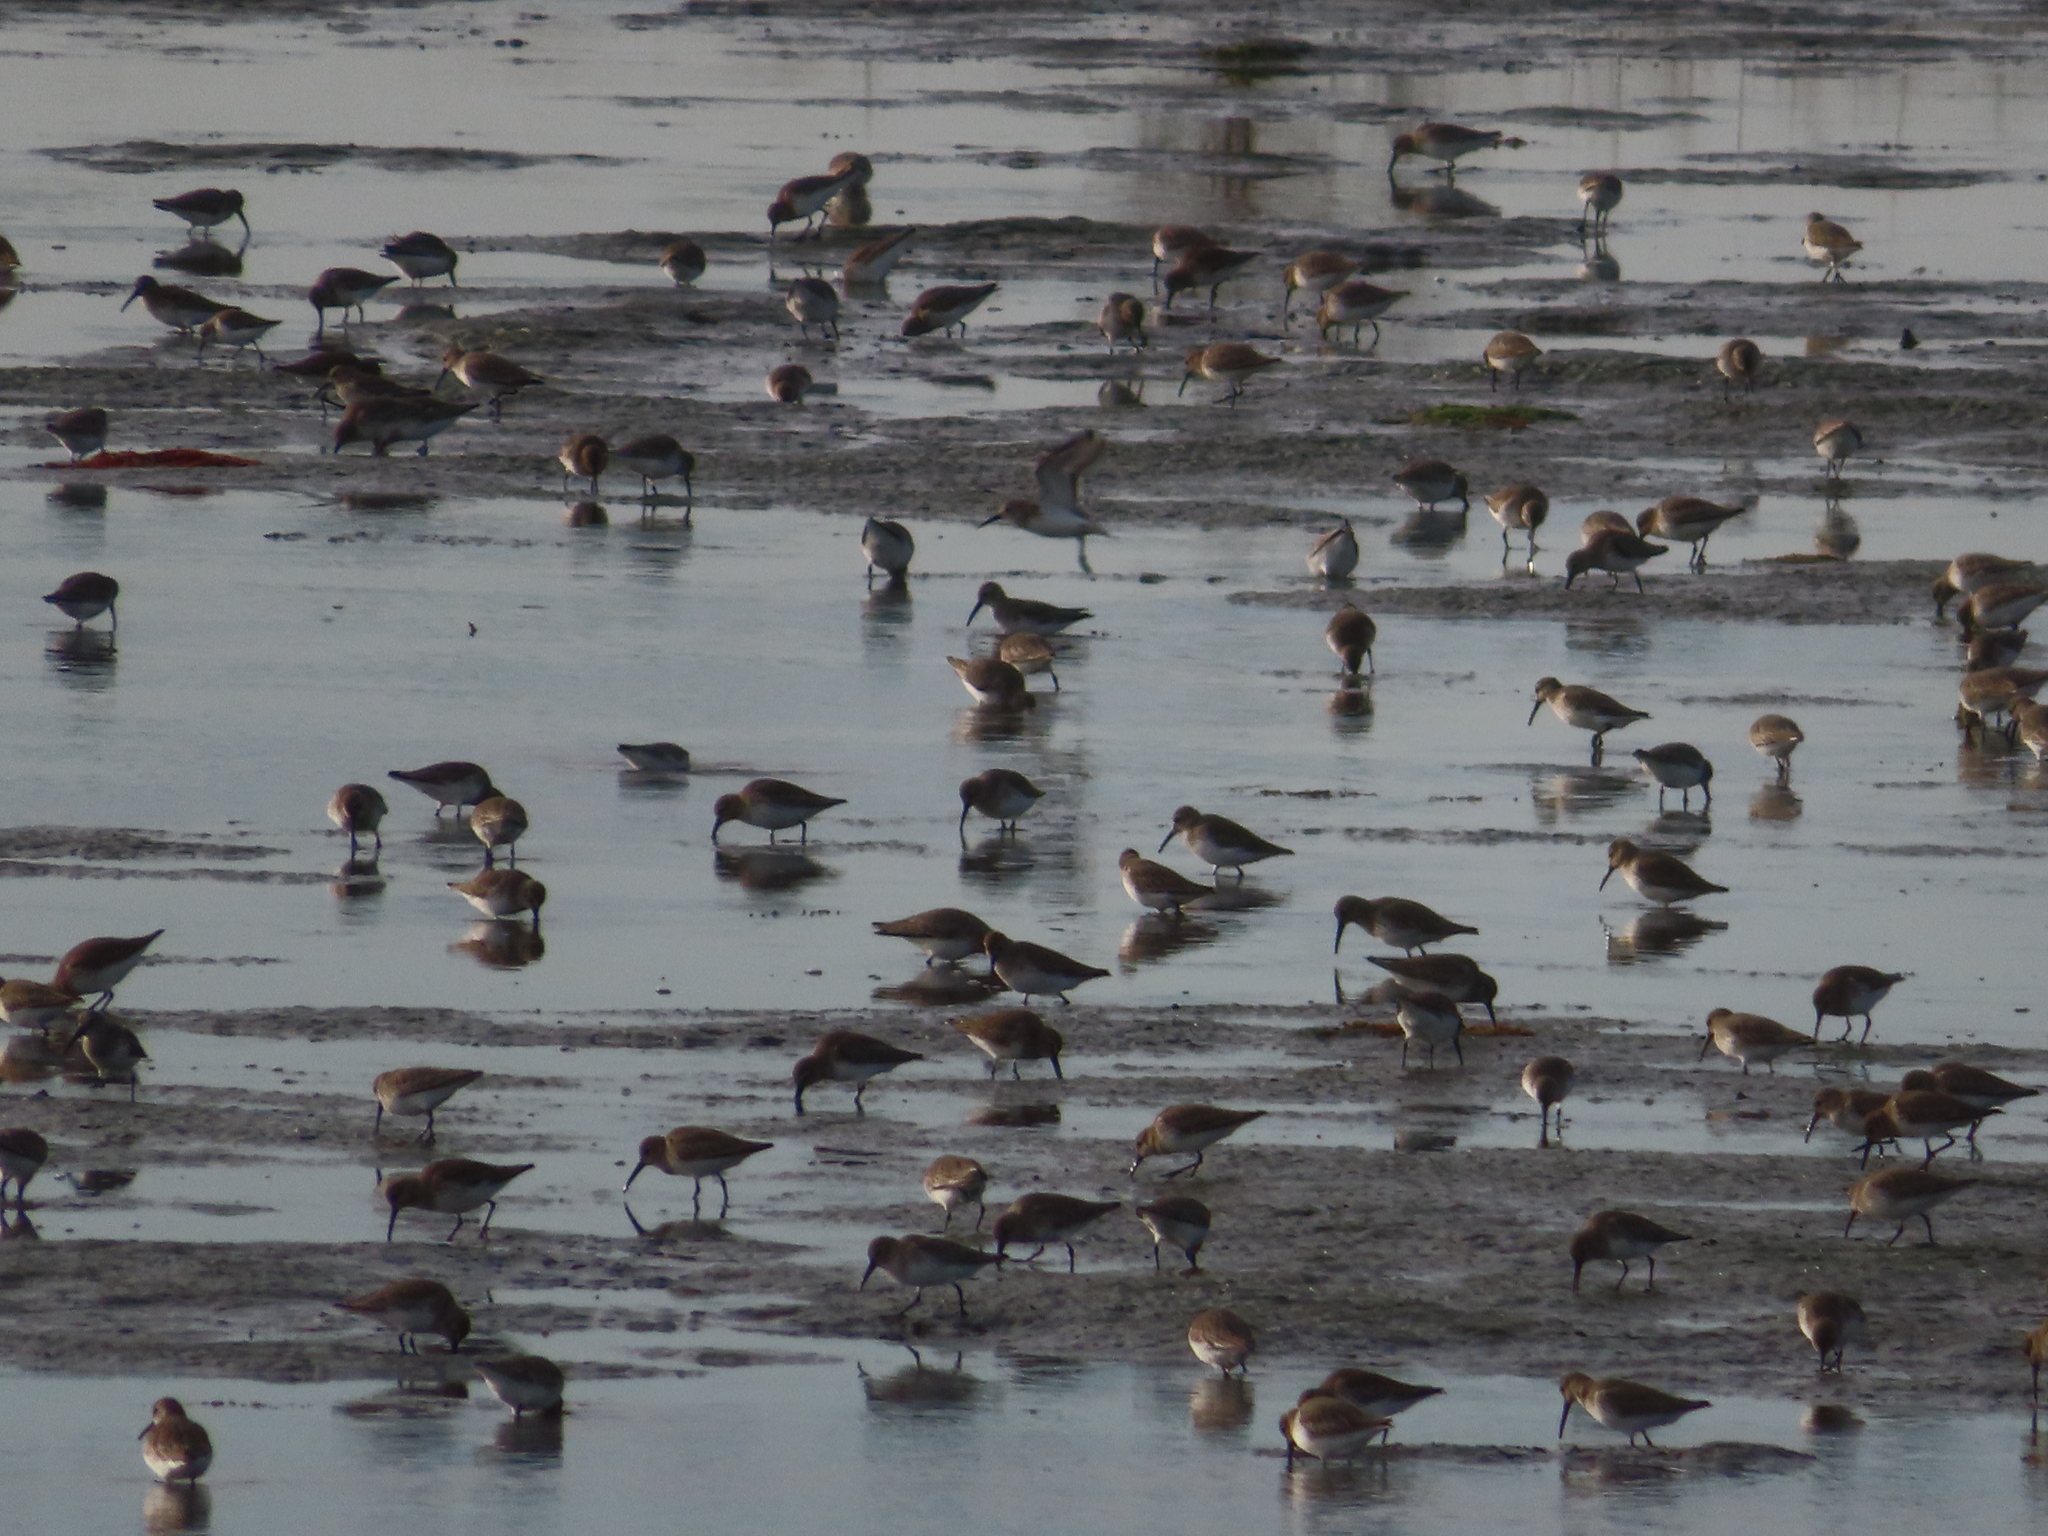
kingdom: Animalia
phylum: Chordata
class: Aves
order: Charadriiformes
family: Scolopacidae
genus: Calidris
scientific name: Calidris alpina
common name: Dunlin
